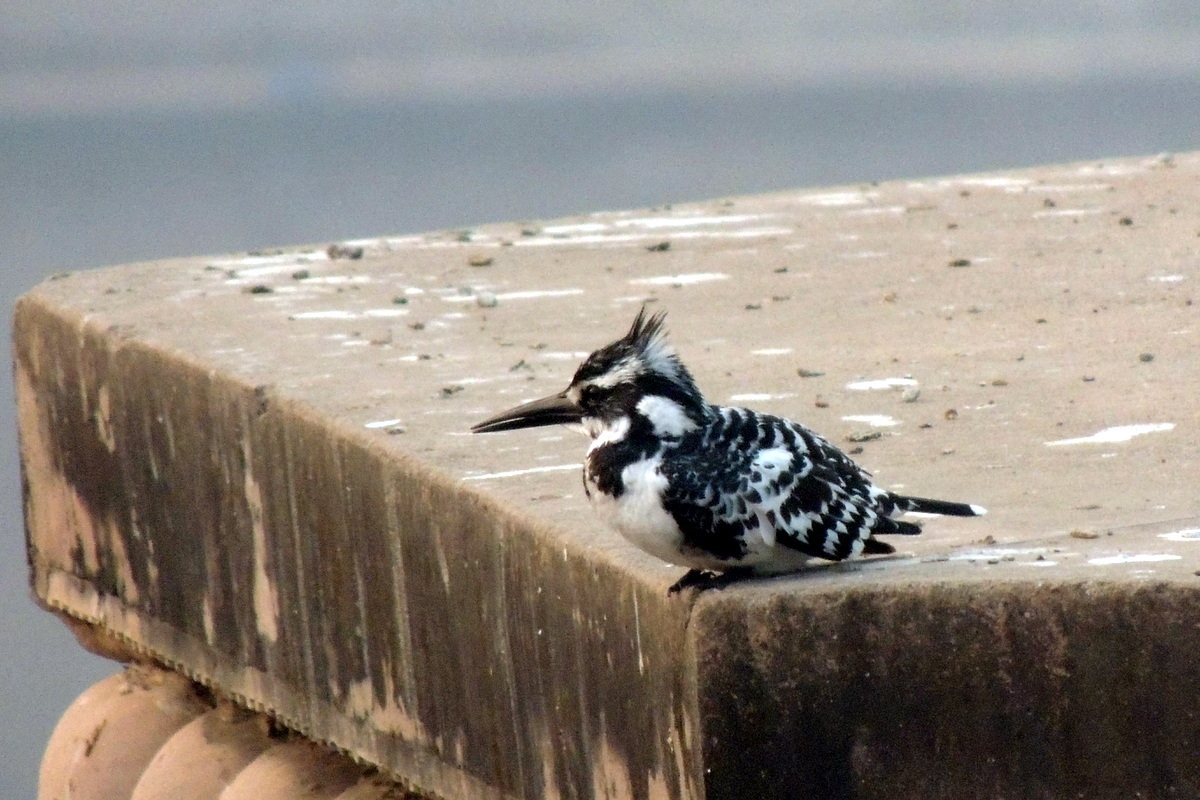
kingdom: Animalia
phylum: Chordata
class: Aves
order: Coraciiformes
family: Alcedinidae
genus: Ceryle
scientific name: Ceryle rudis
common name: Pied kingfisher
